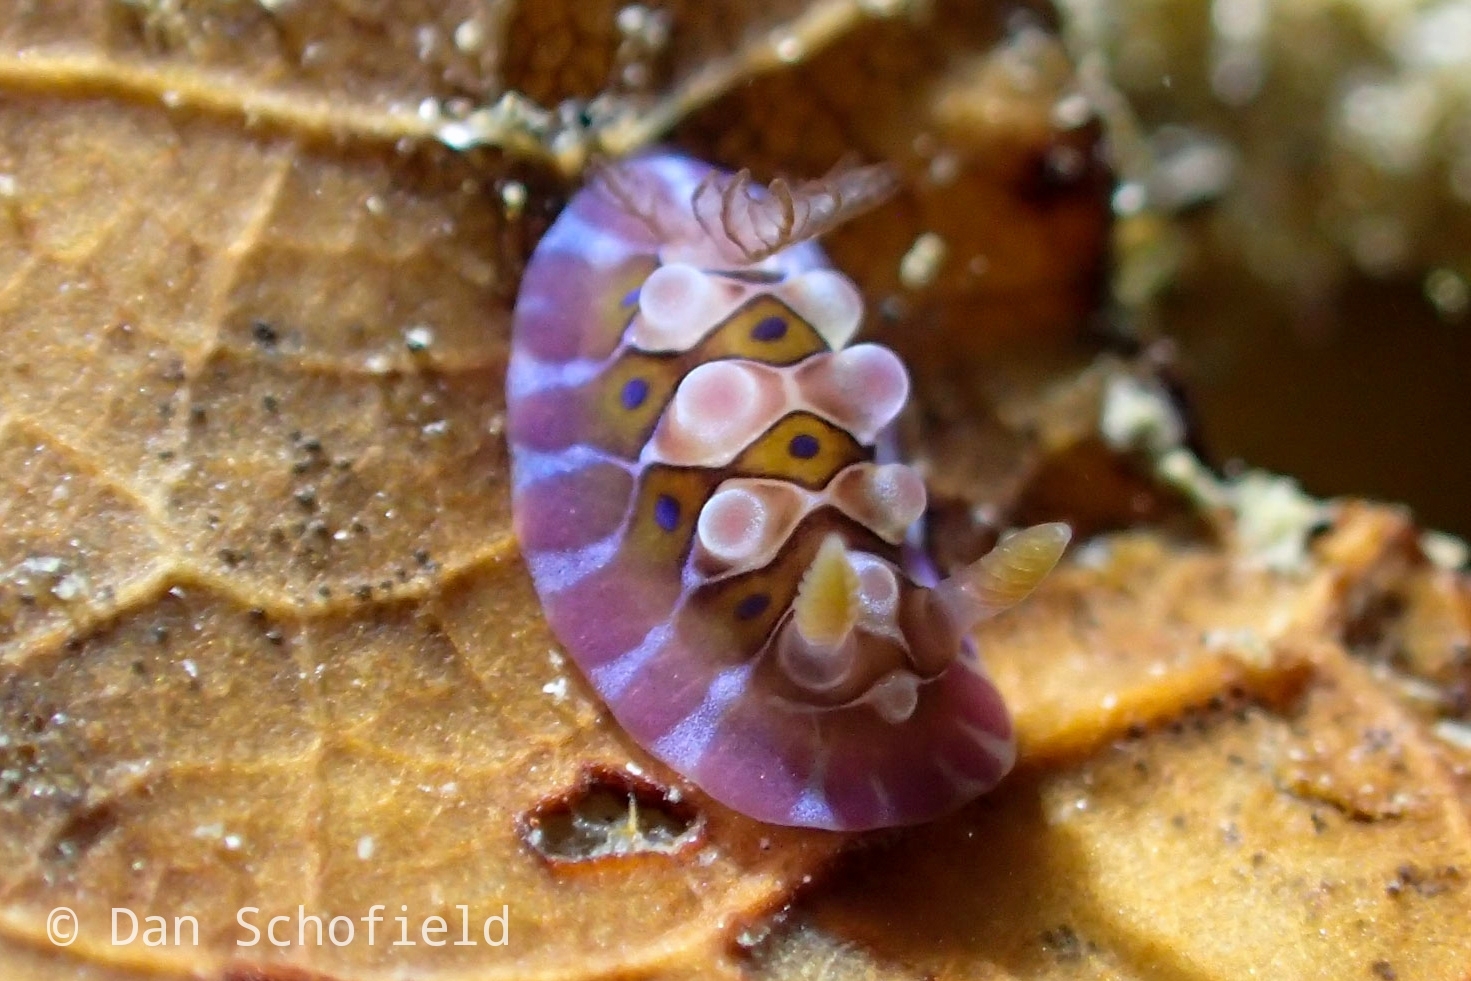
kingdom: Animalia
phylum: Mollusca
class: Gastropoda
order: Nudibranchia
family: Dendrodorididae
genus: Dendrodoris
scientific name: Dendrodoris krusensternii
